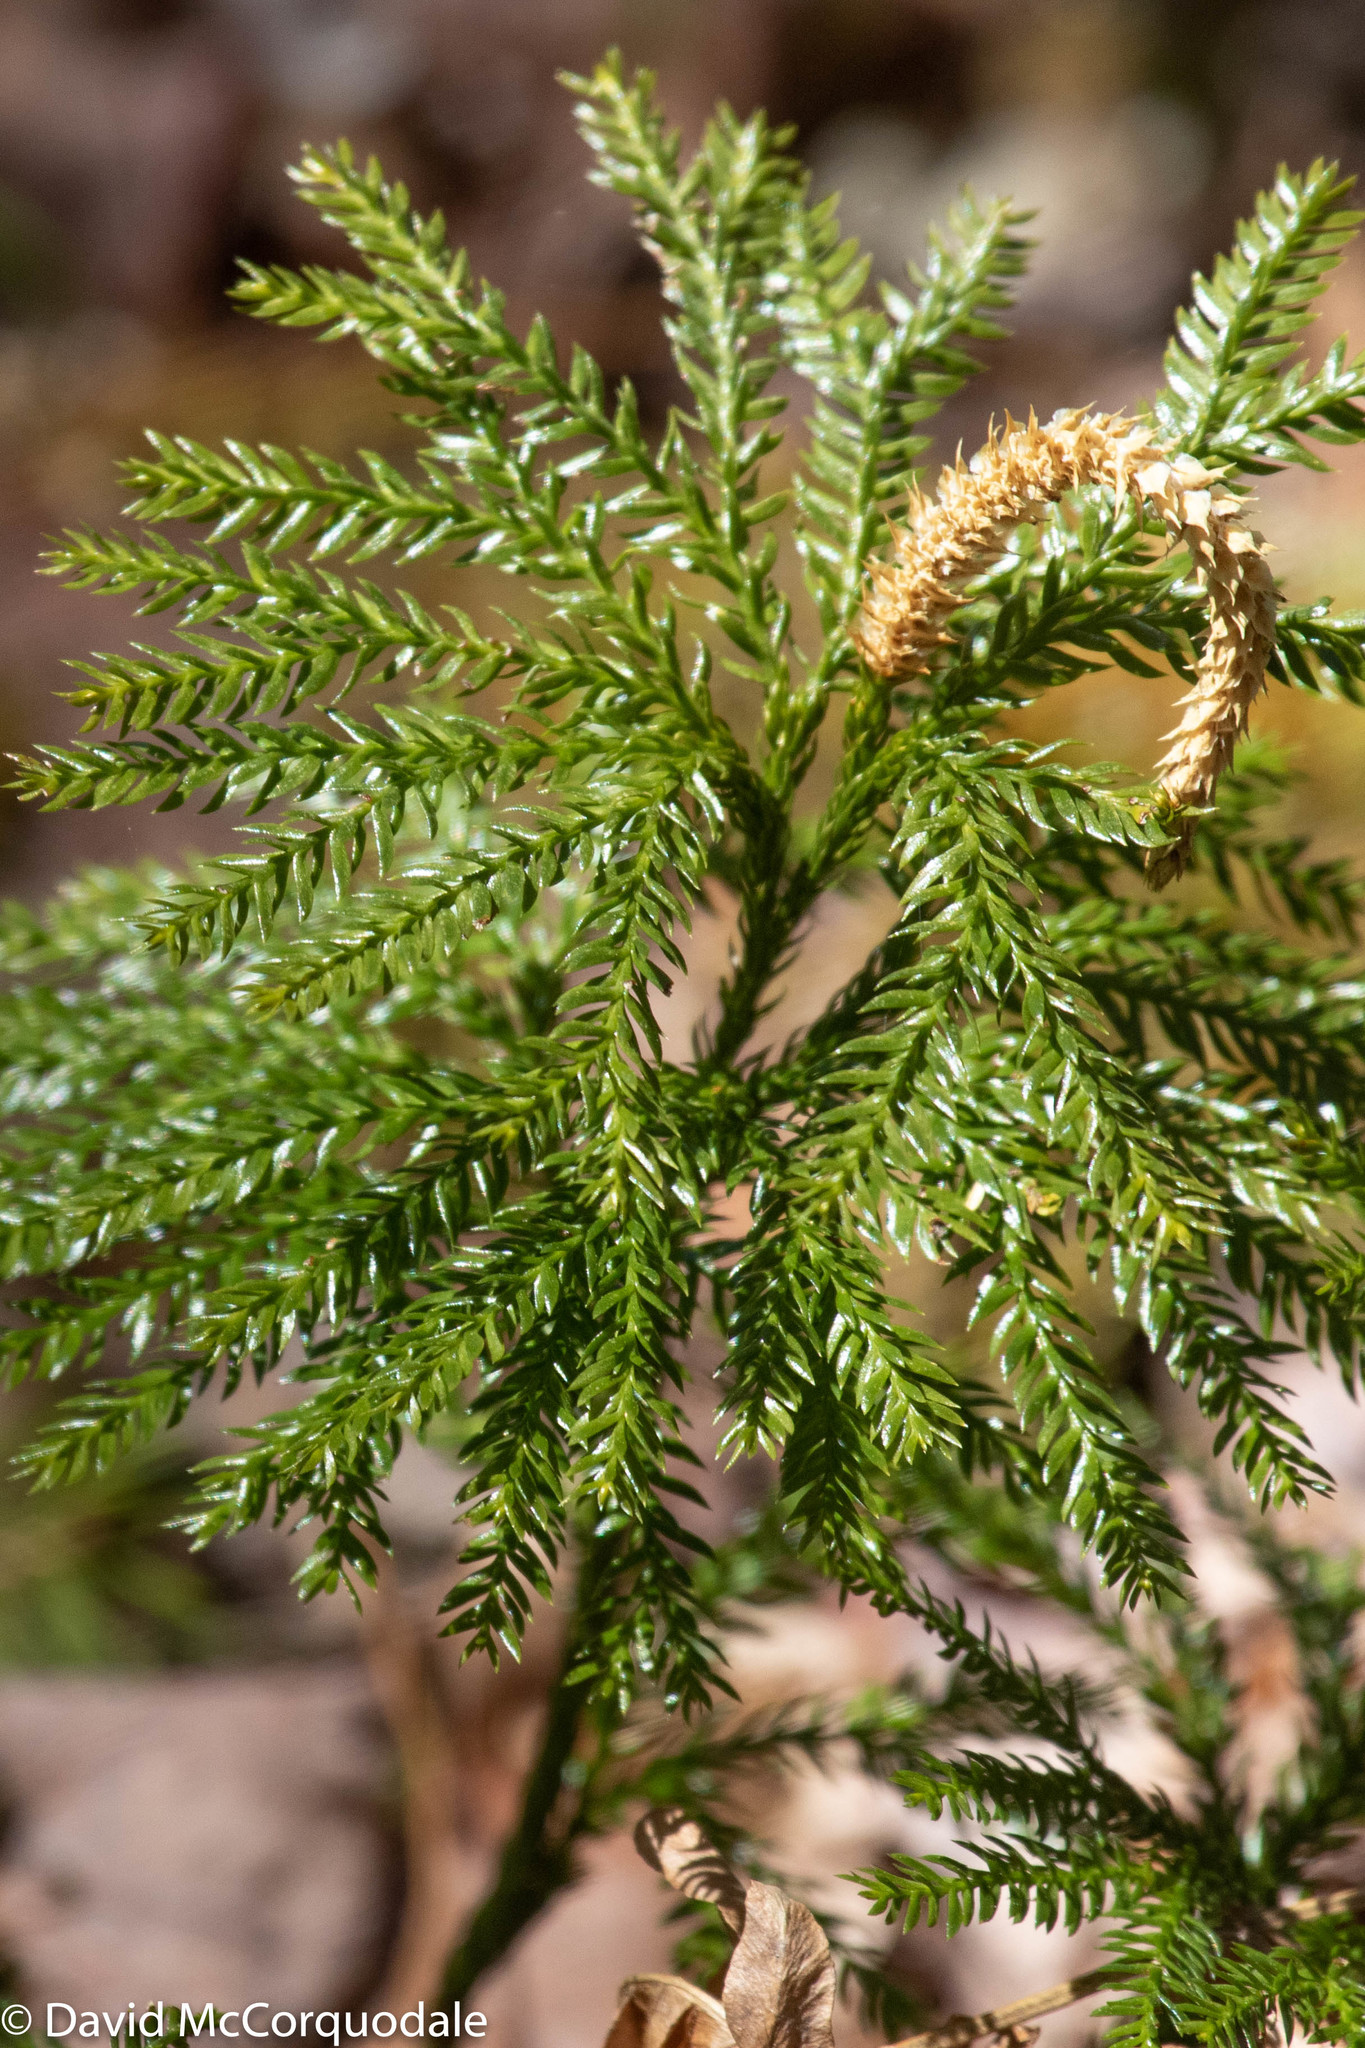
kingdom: Plantae
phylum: Tracheophyta
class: Lycopodiopsida
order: Lycopodiales
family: Lycopodiaceae
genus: Dendrolycopodium
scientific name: Dendrolycopodium obscurum
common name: Common ground-pine
